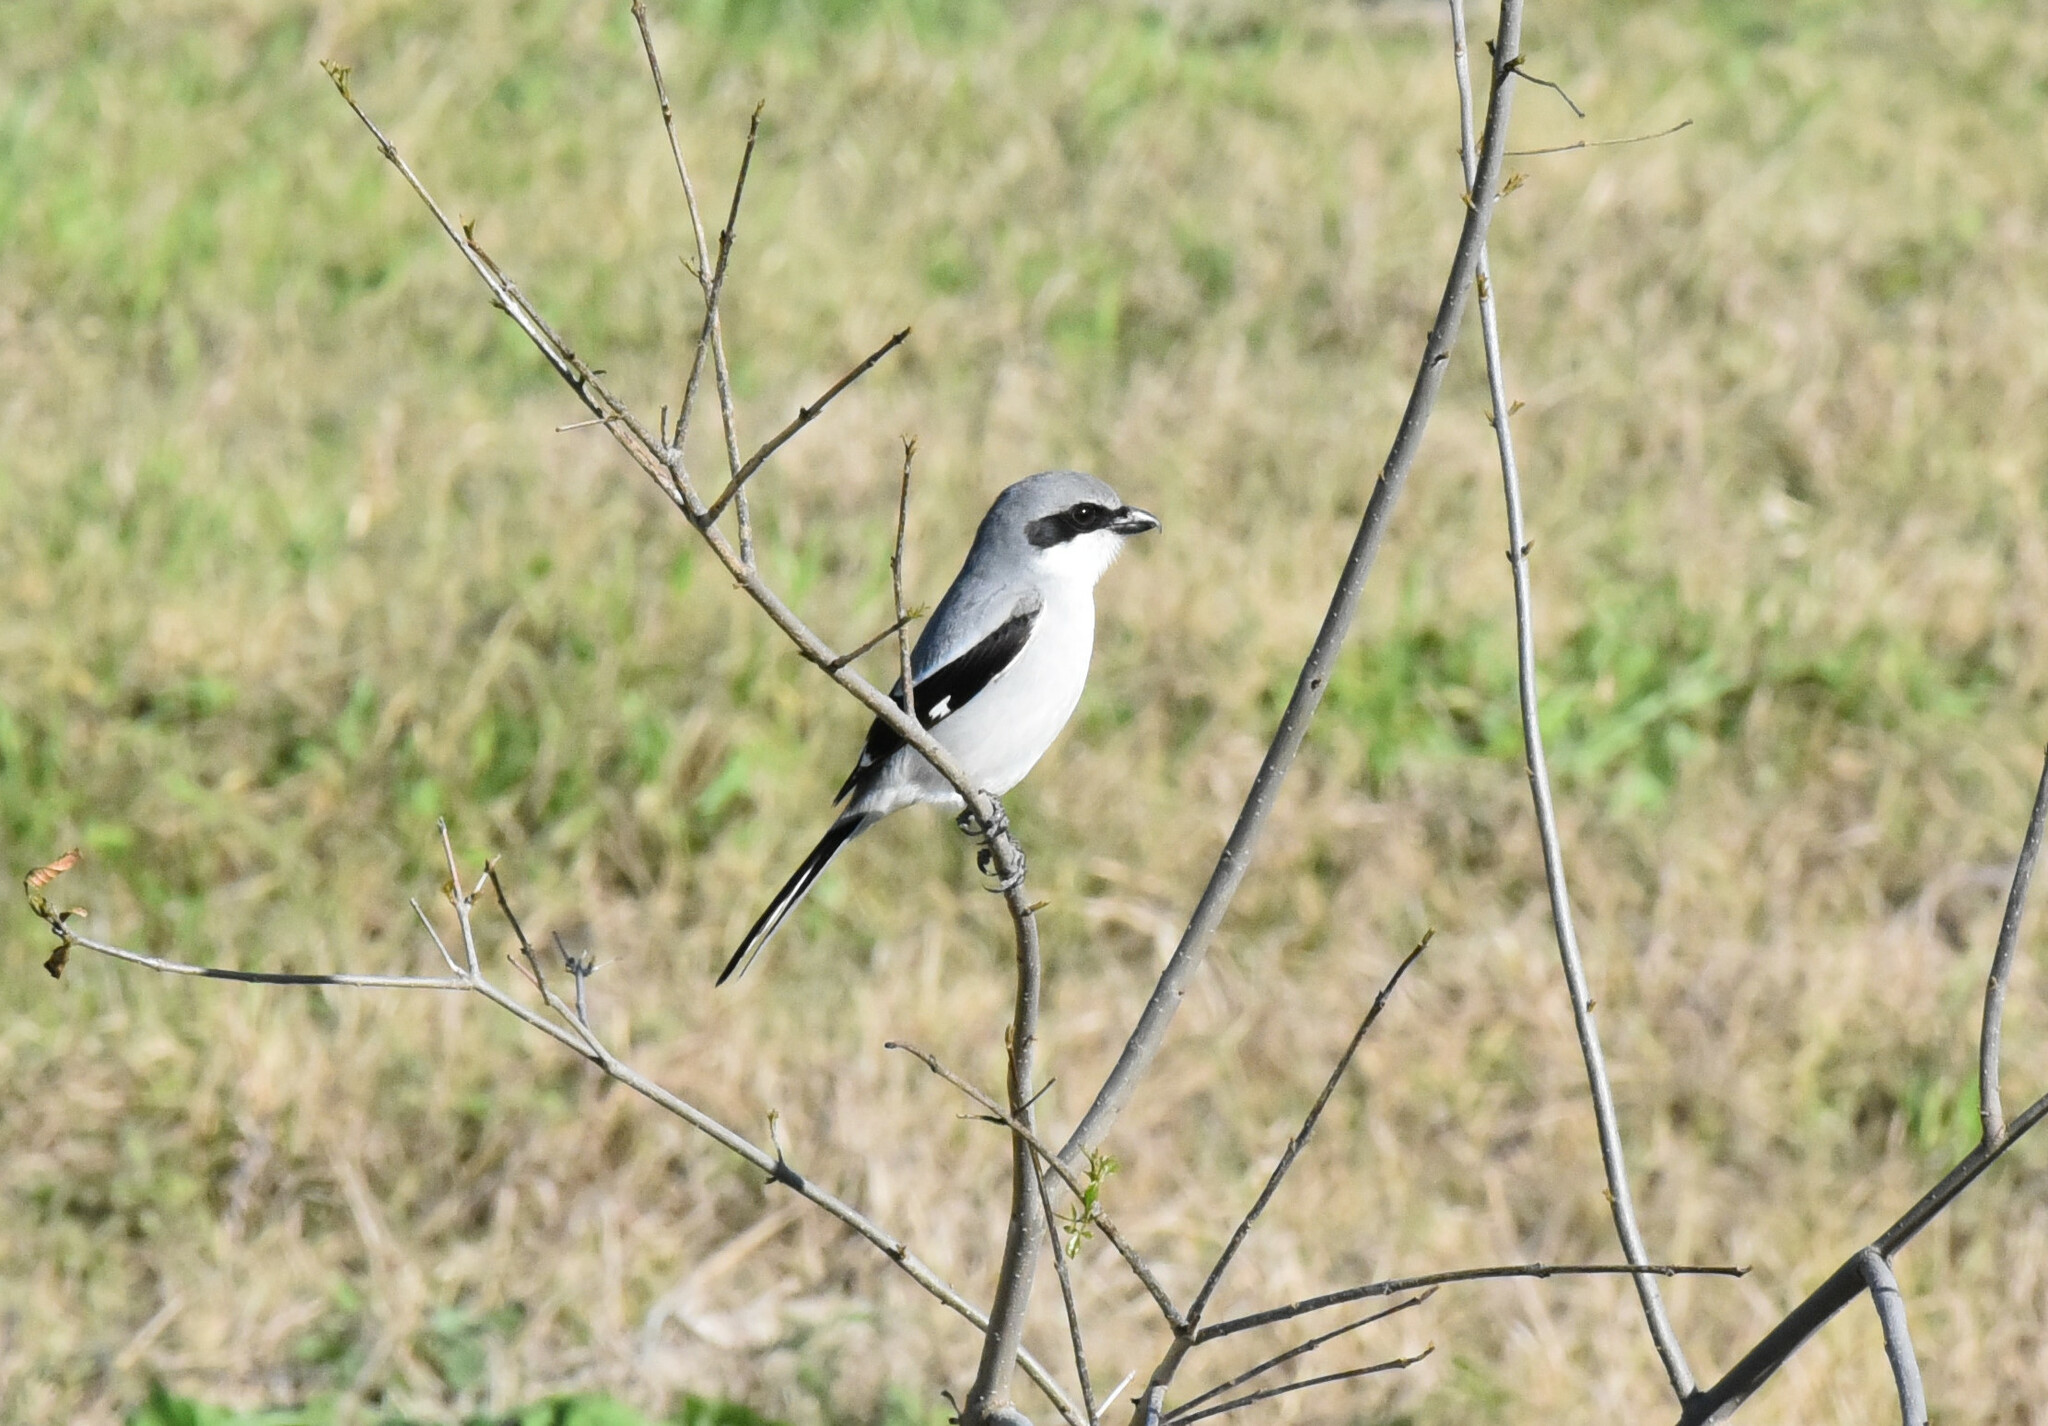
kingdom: Animalia
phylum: Chordata
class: Aves
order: Passeriformes
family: Laniidae
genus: Lanius
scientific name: Lanius ludovicianus
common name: Loggerhead shrike
